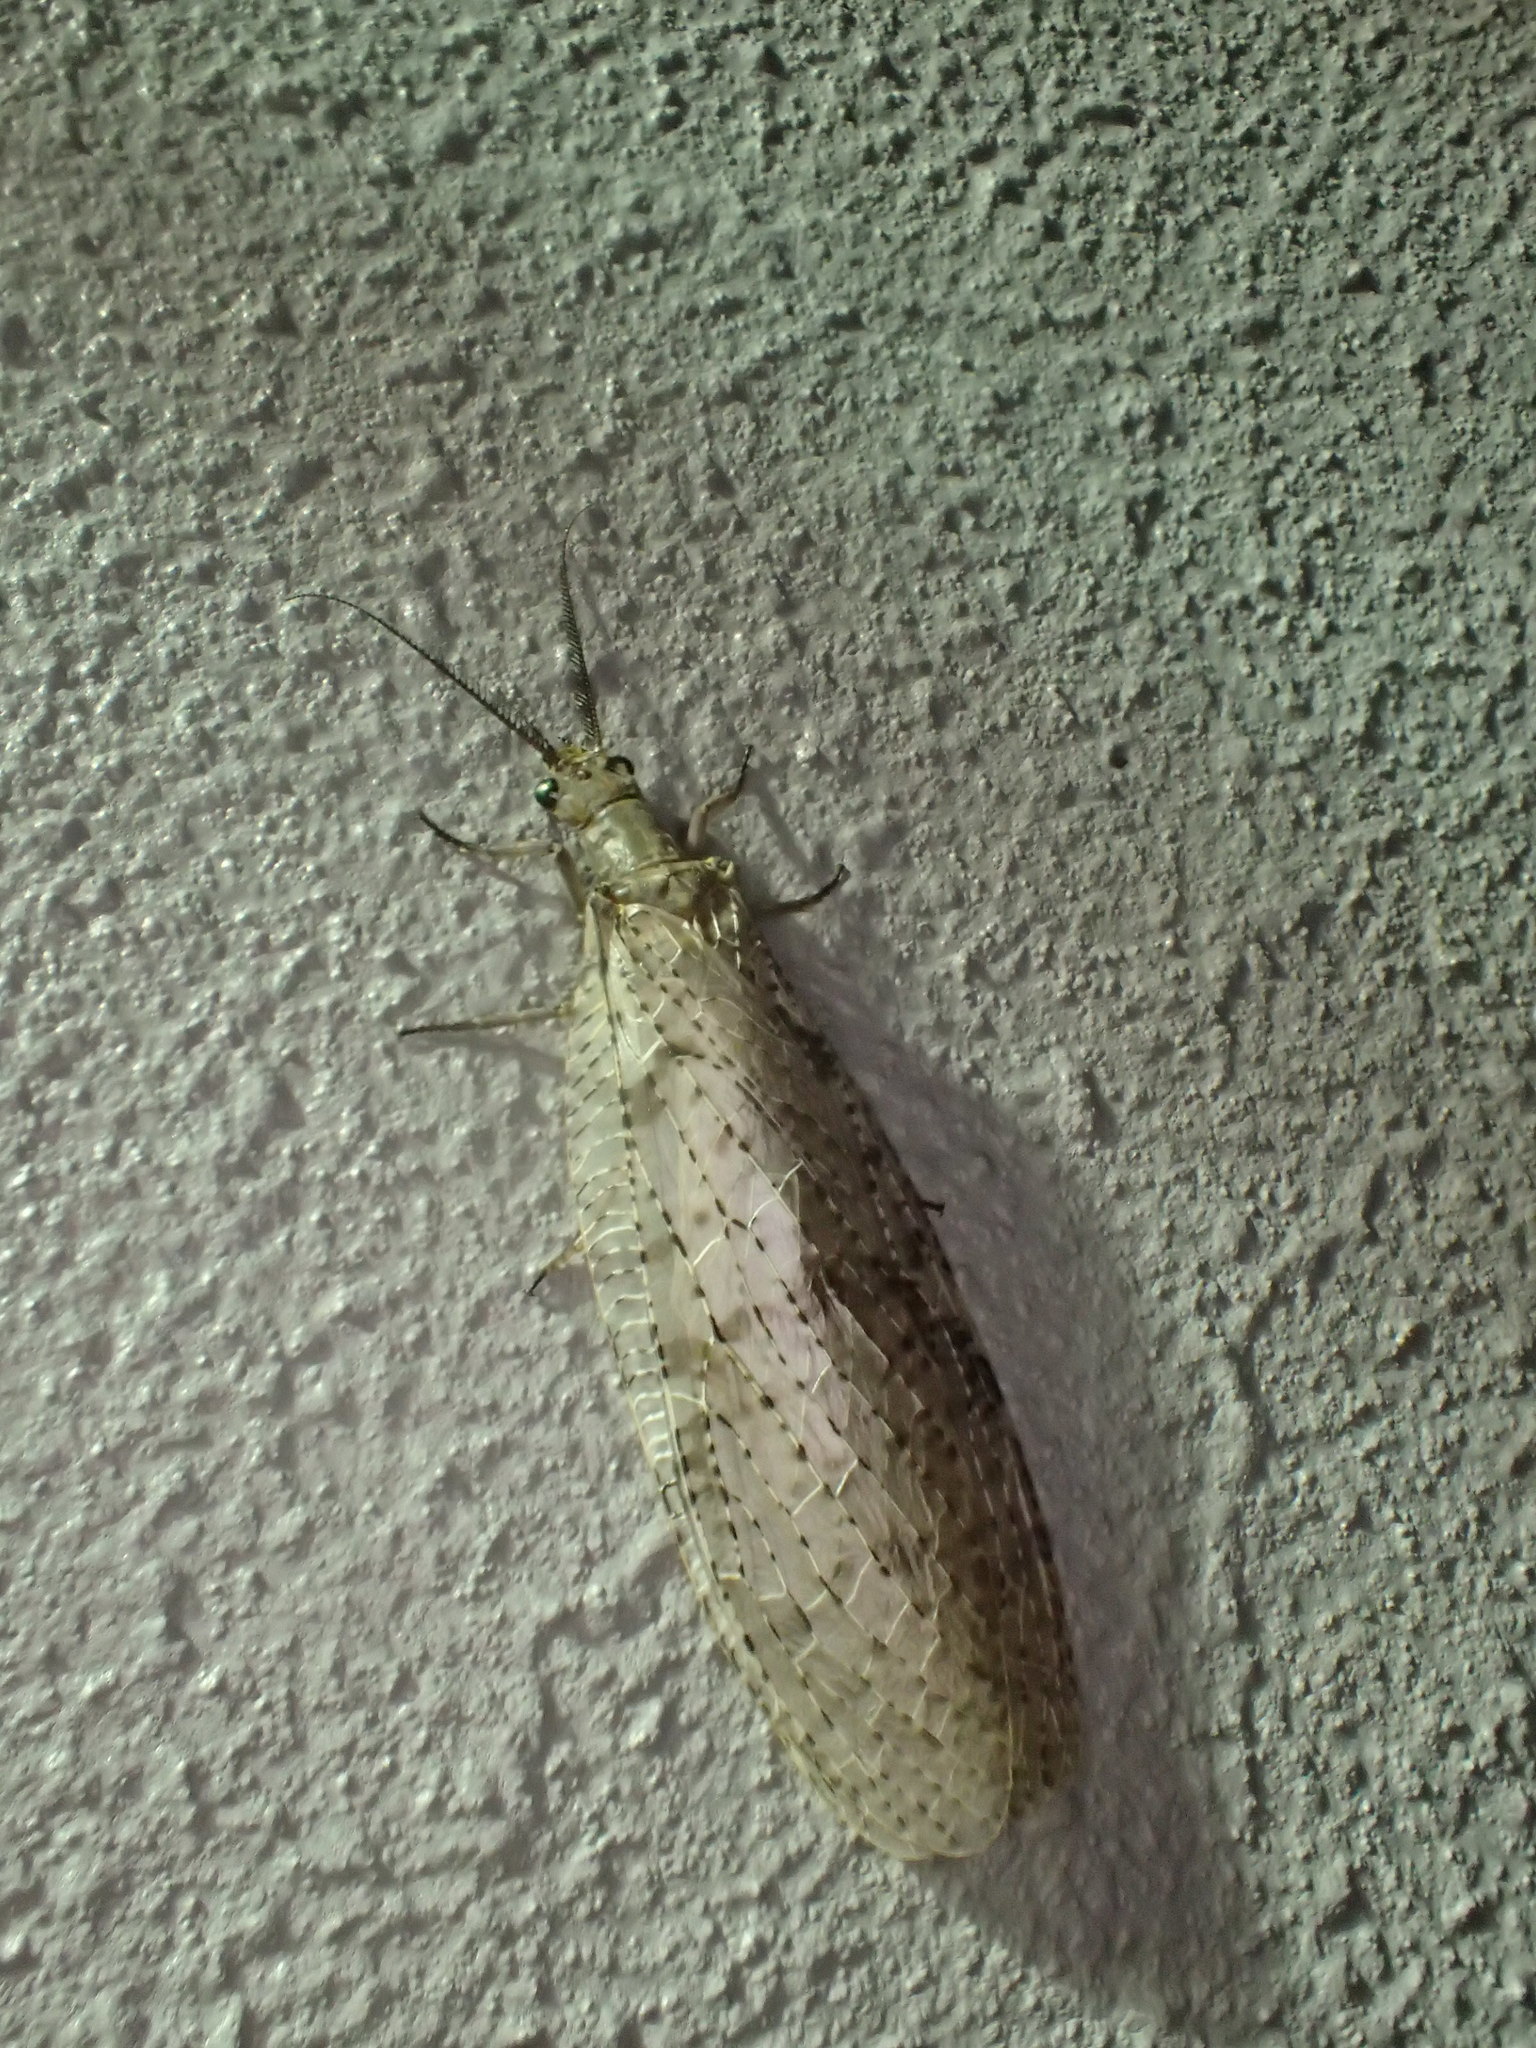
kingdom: Animalia
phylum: Arthropoda
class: Insecta
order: Megaloptera
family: Corydalidae
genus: Chauliodes
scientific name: Chauliodes pectinicornis
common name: Summer fishfly
